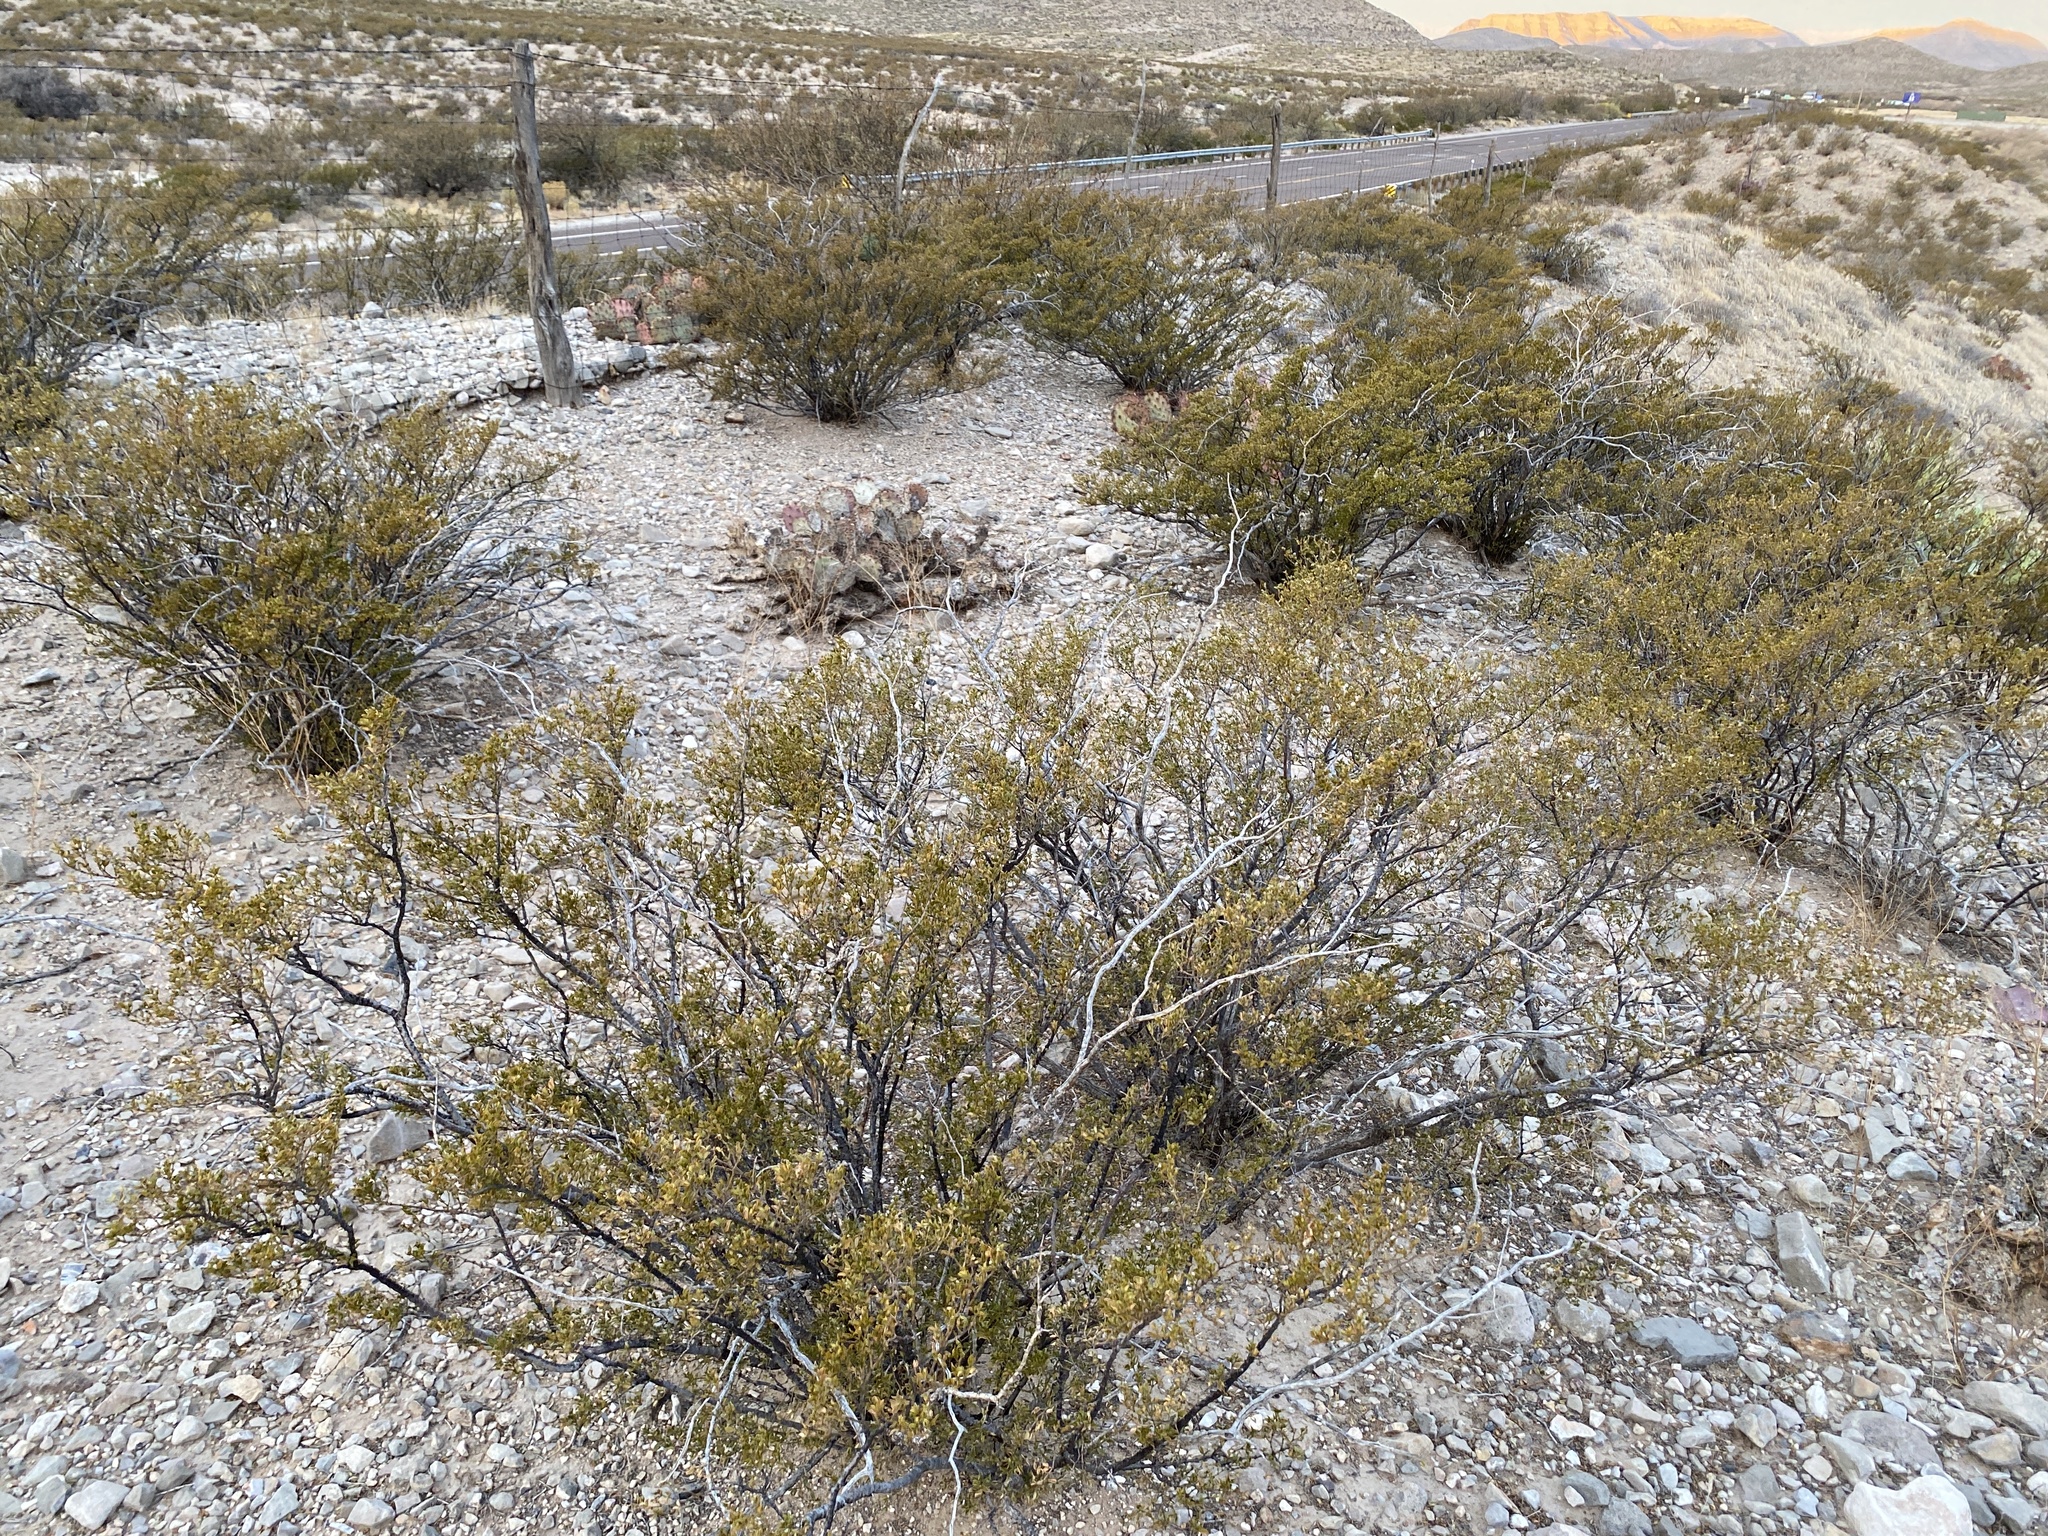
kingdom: Plantae
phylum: Tracheophyta
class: Magnoliopsida
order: Zygophyllales
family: Zygophyllaceae
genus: Larrea
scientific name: Larrea tridentata
